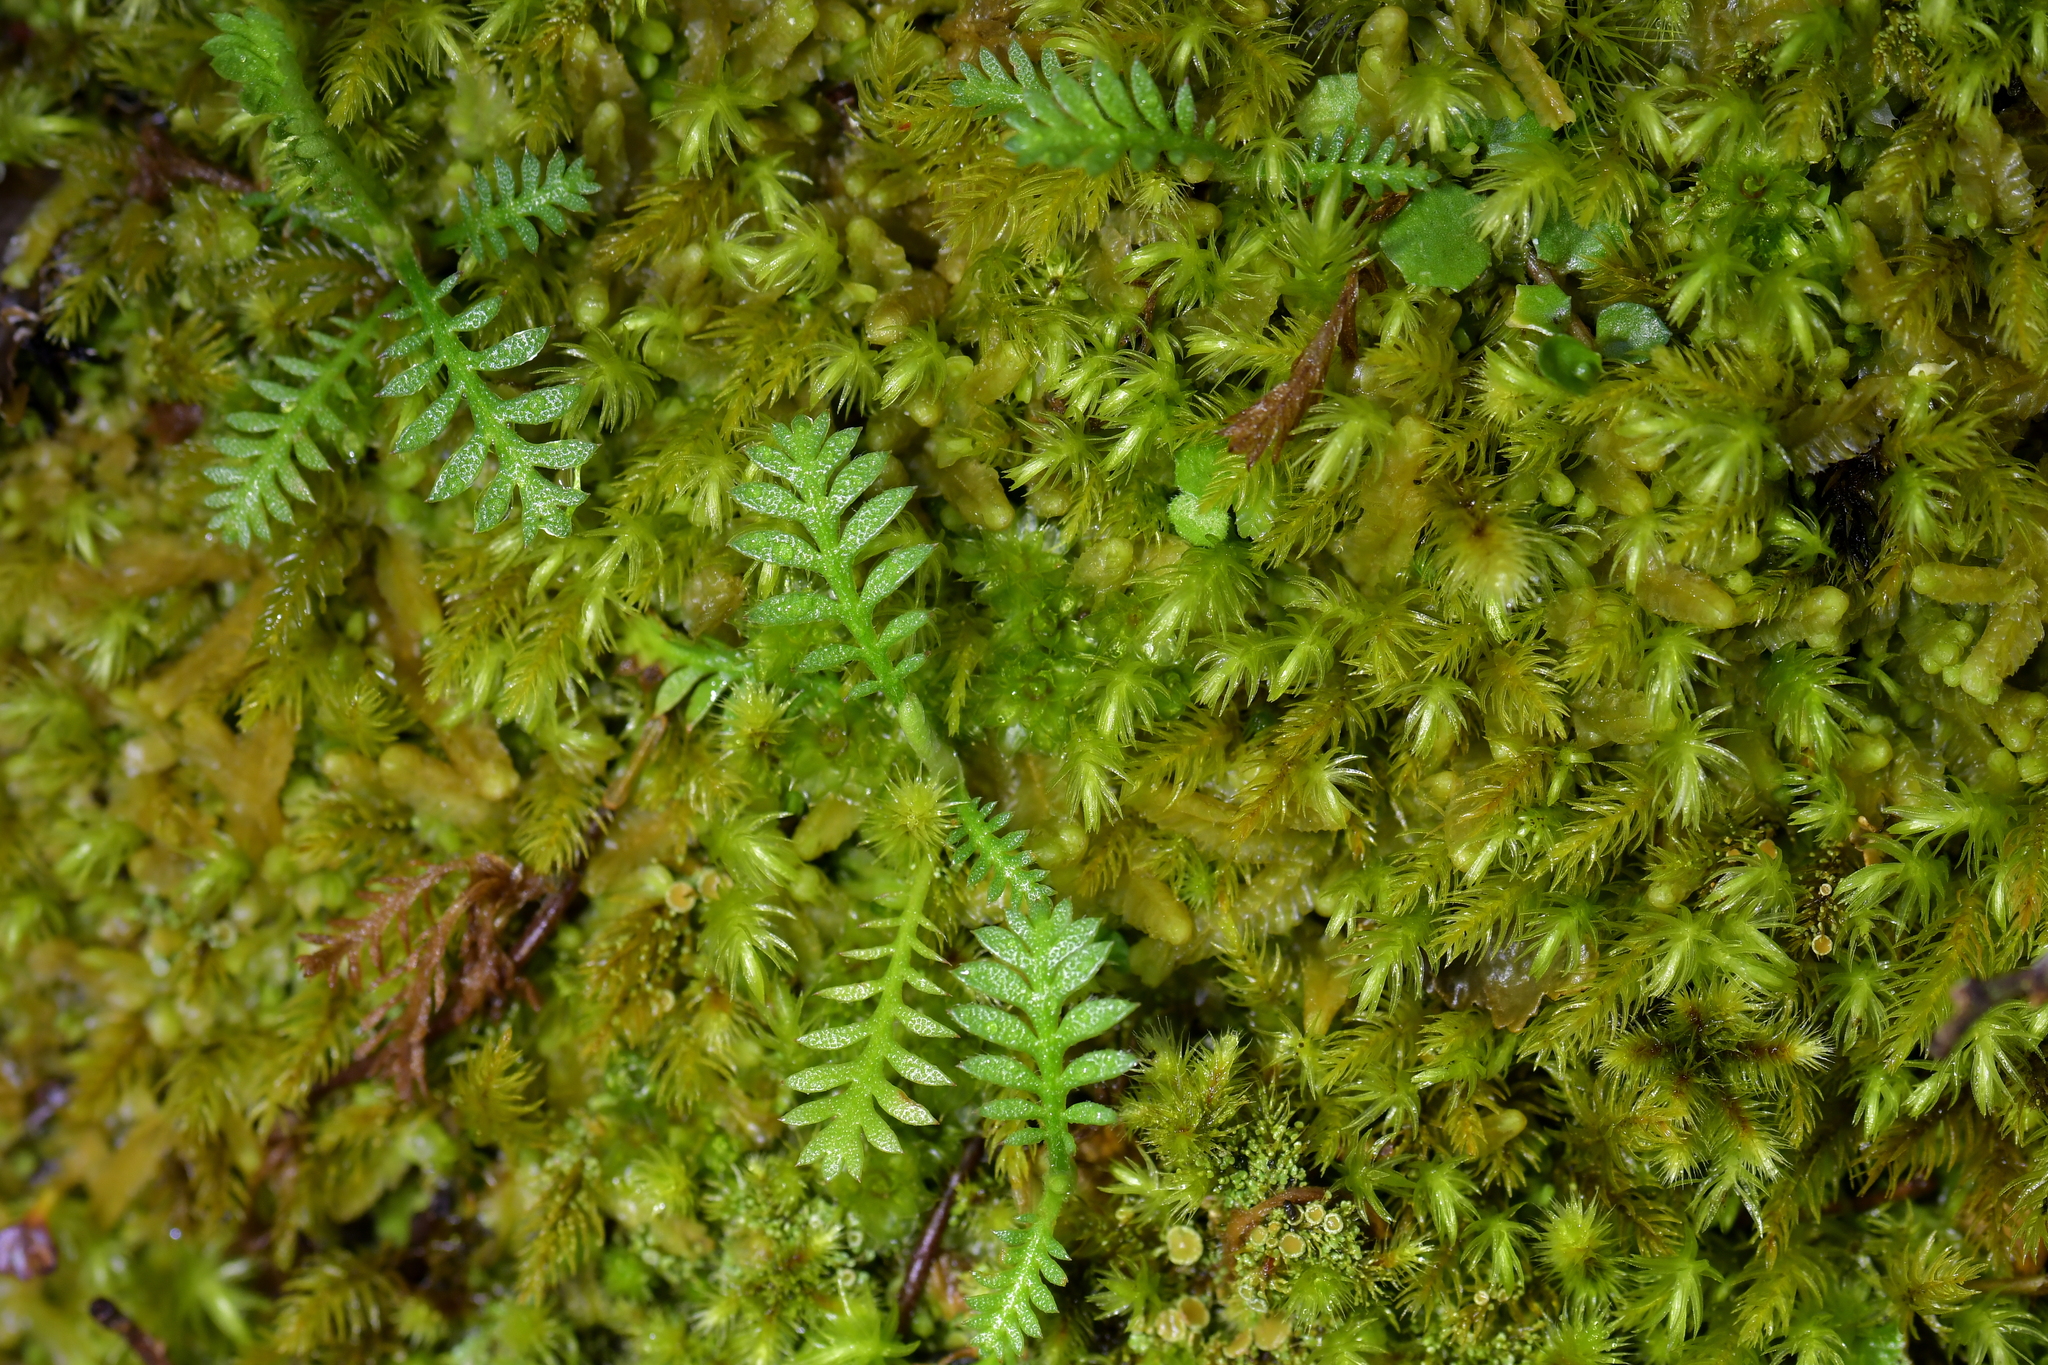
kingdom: Plantae
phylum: Tracheophyta
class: Magnoliopsida
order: Asterales
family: Asteraceae
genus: Leptinella
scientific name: Leptinella squalida
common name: New zealand brass-buttons
